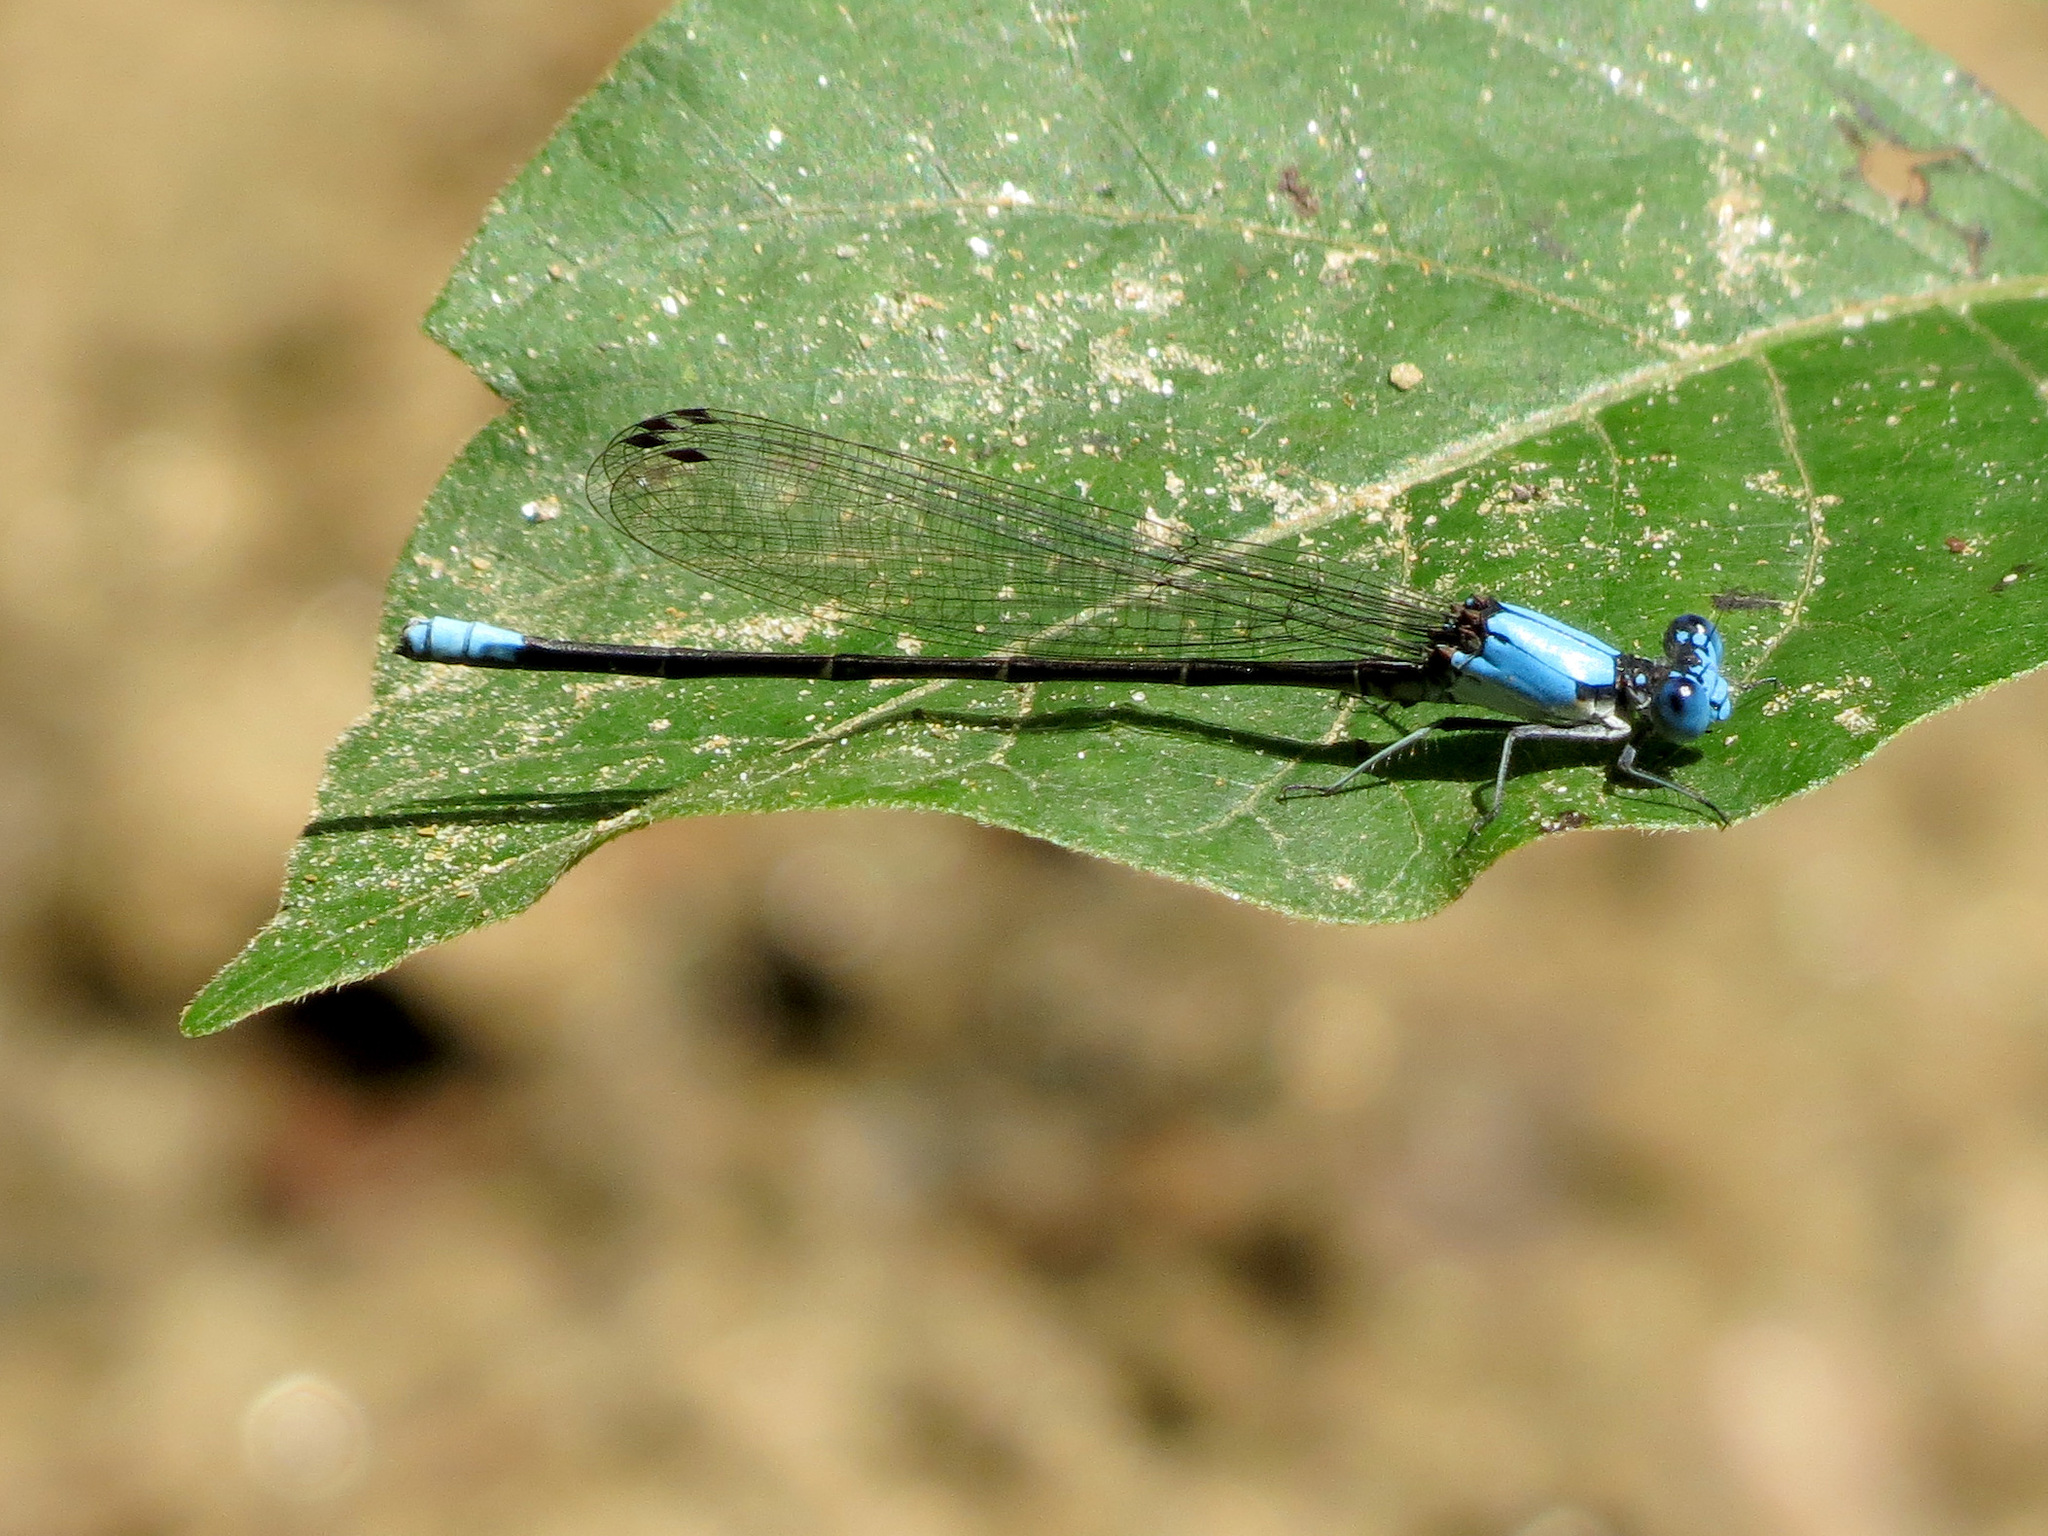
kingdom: Animalia
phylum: Arthropoda
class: Insecta
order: Odonata
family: Coenagrionidae
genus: Argia
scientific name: Argia apicalis
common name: Blue-fronted dancer
